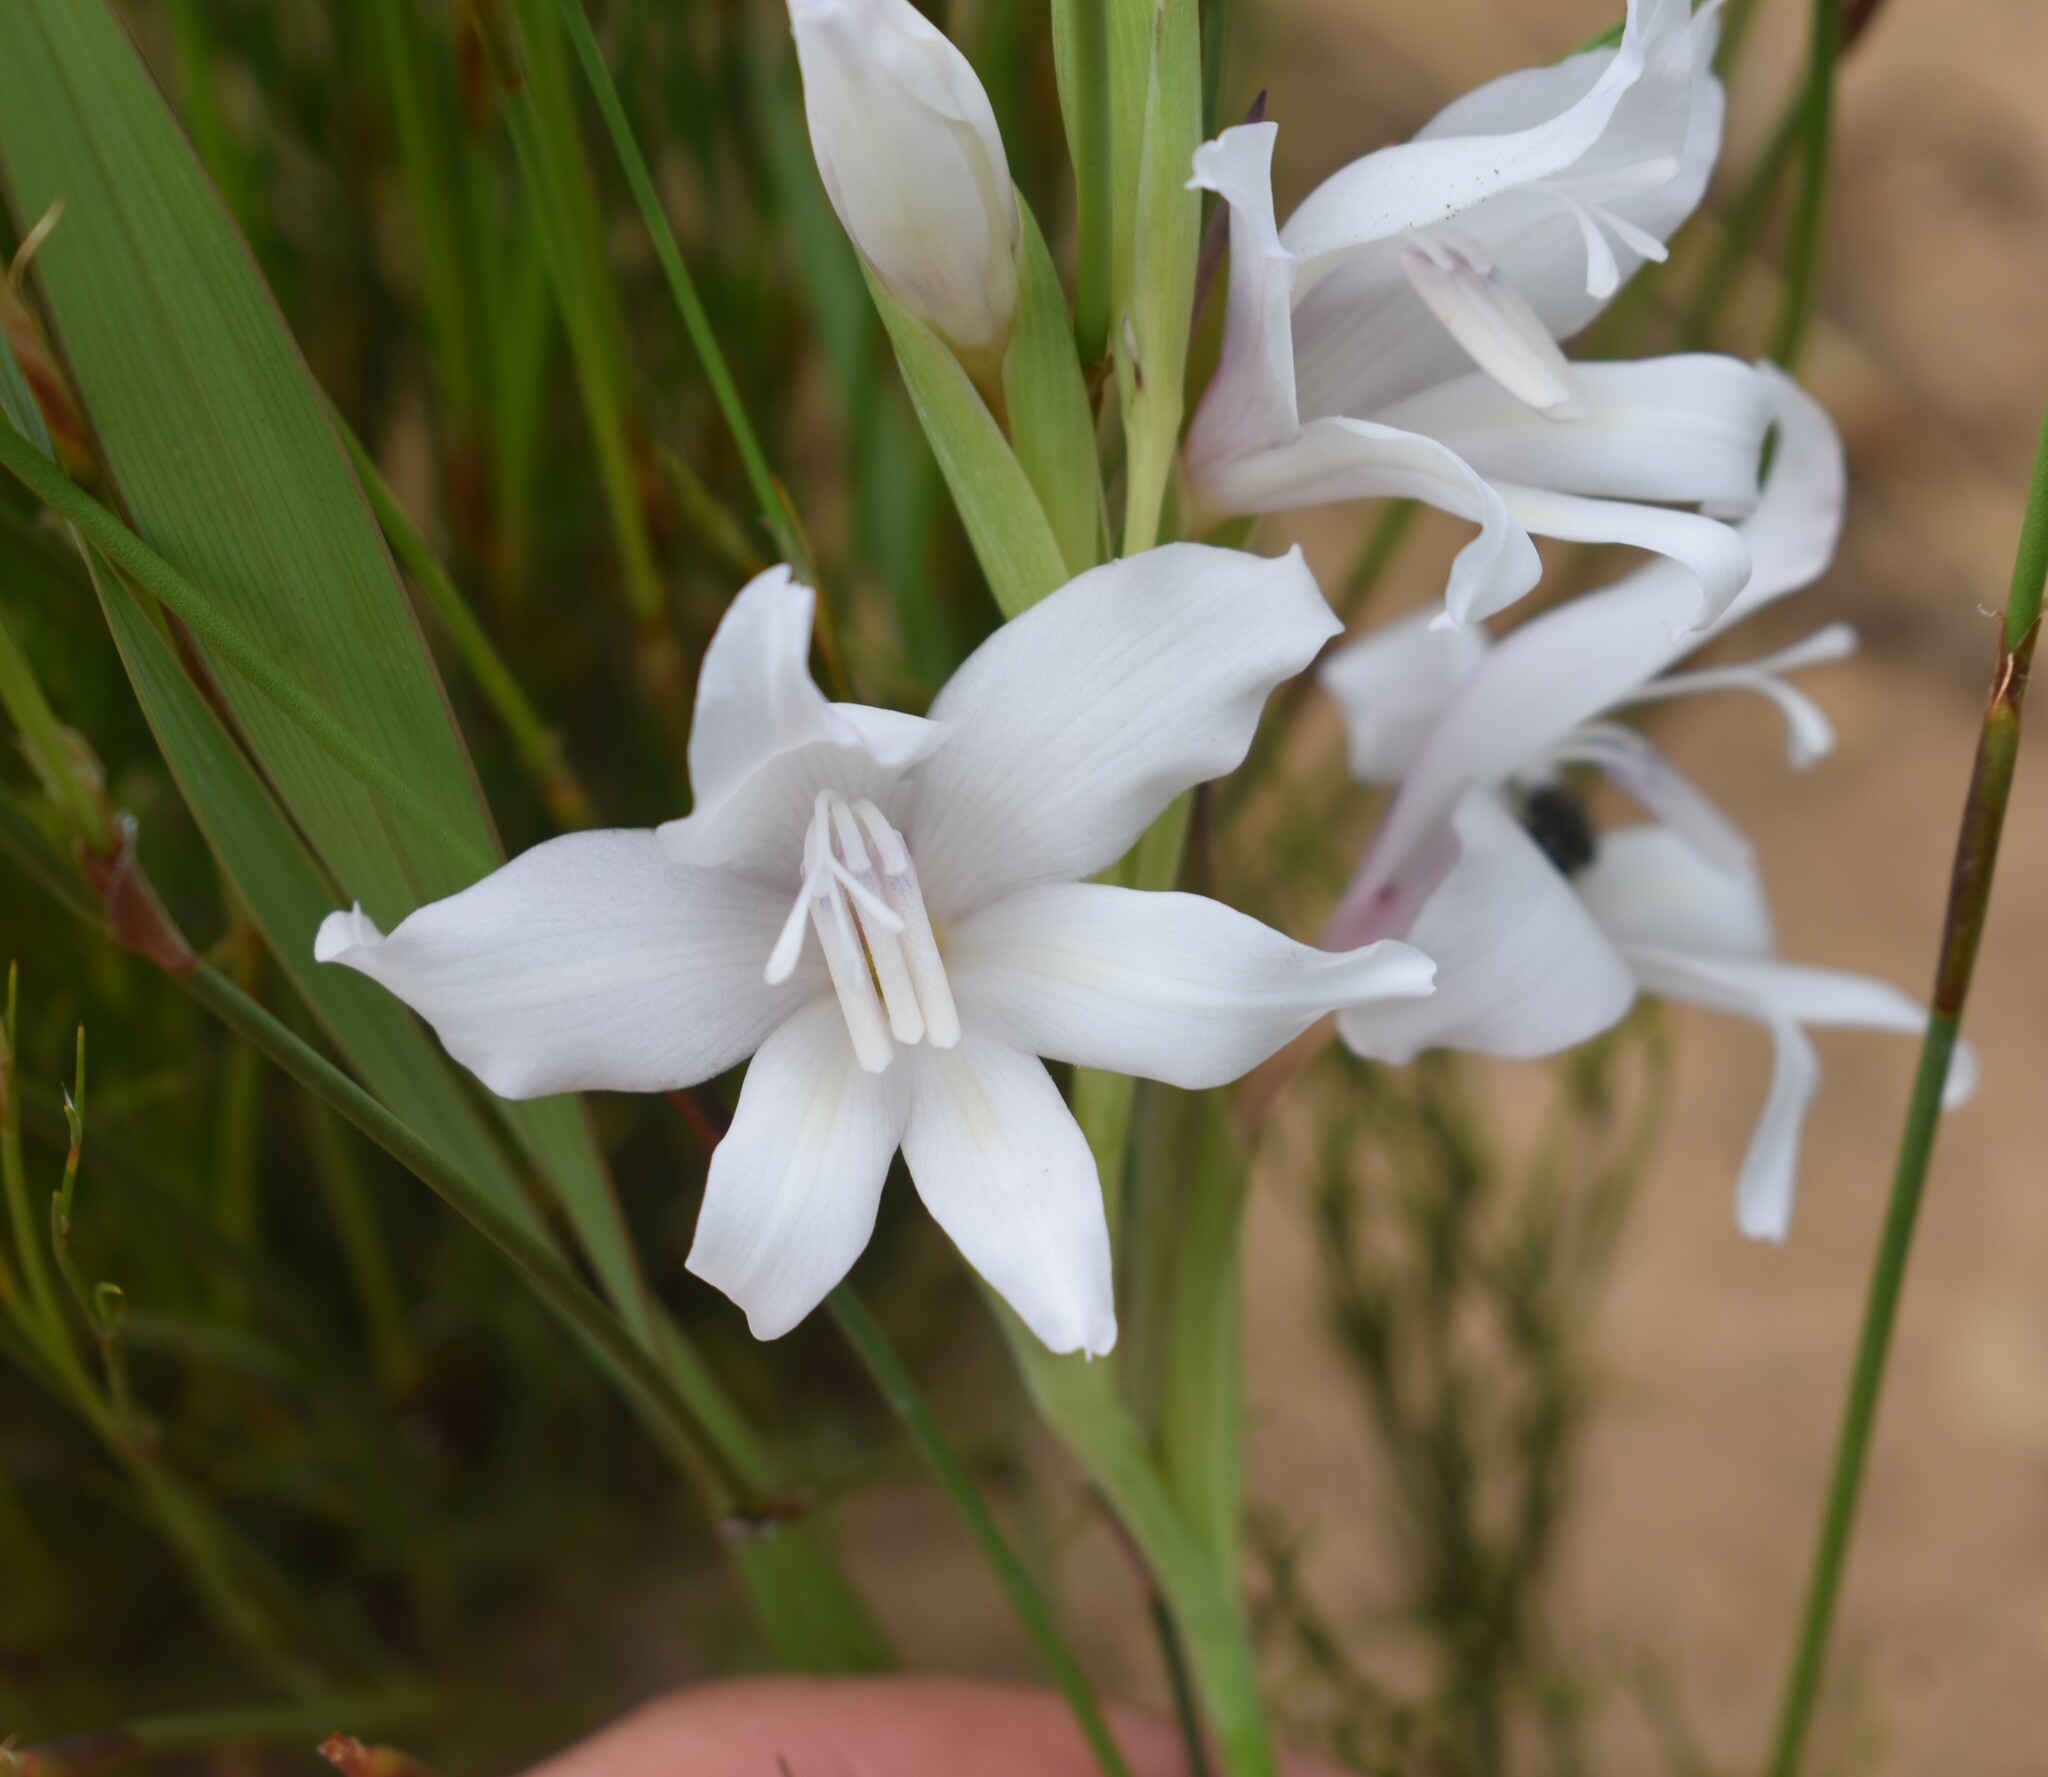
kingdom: Plantae
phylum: Tracheophyta
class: Liliopsida
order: Asparagales
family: Iridaceae
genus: Gladiolus
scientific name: Gladiolus carneus
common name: Painted-lady
